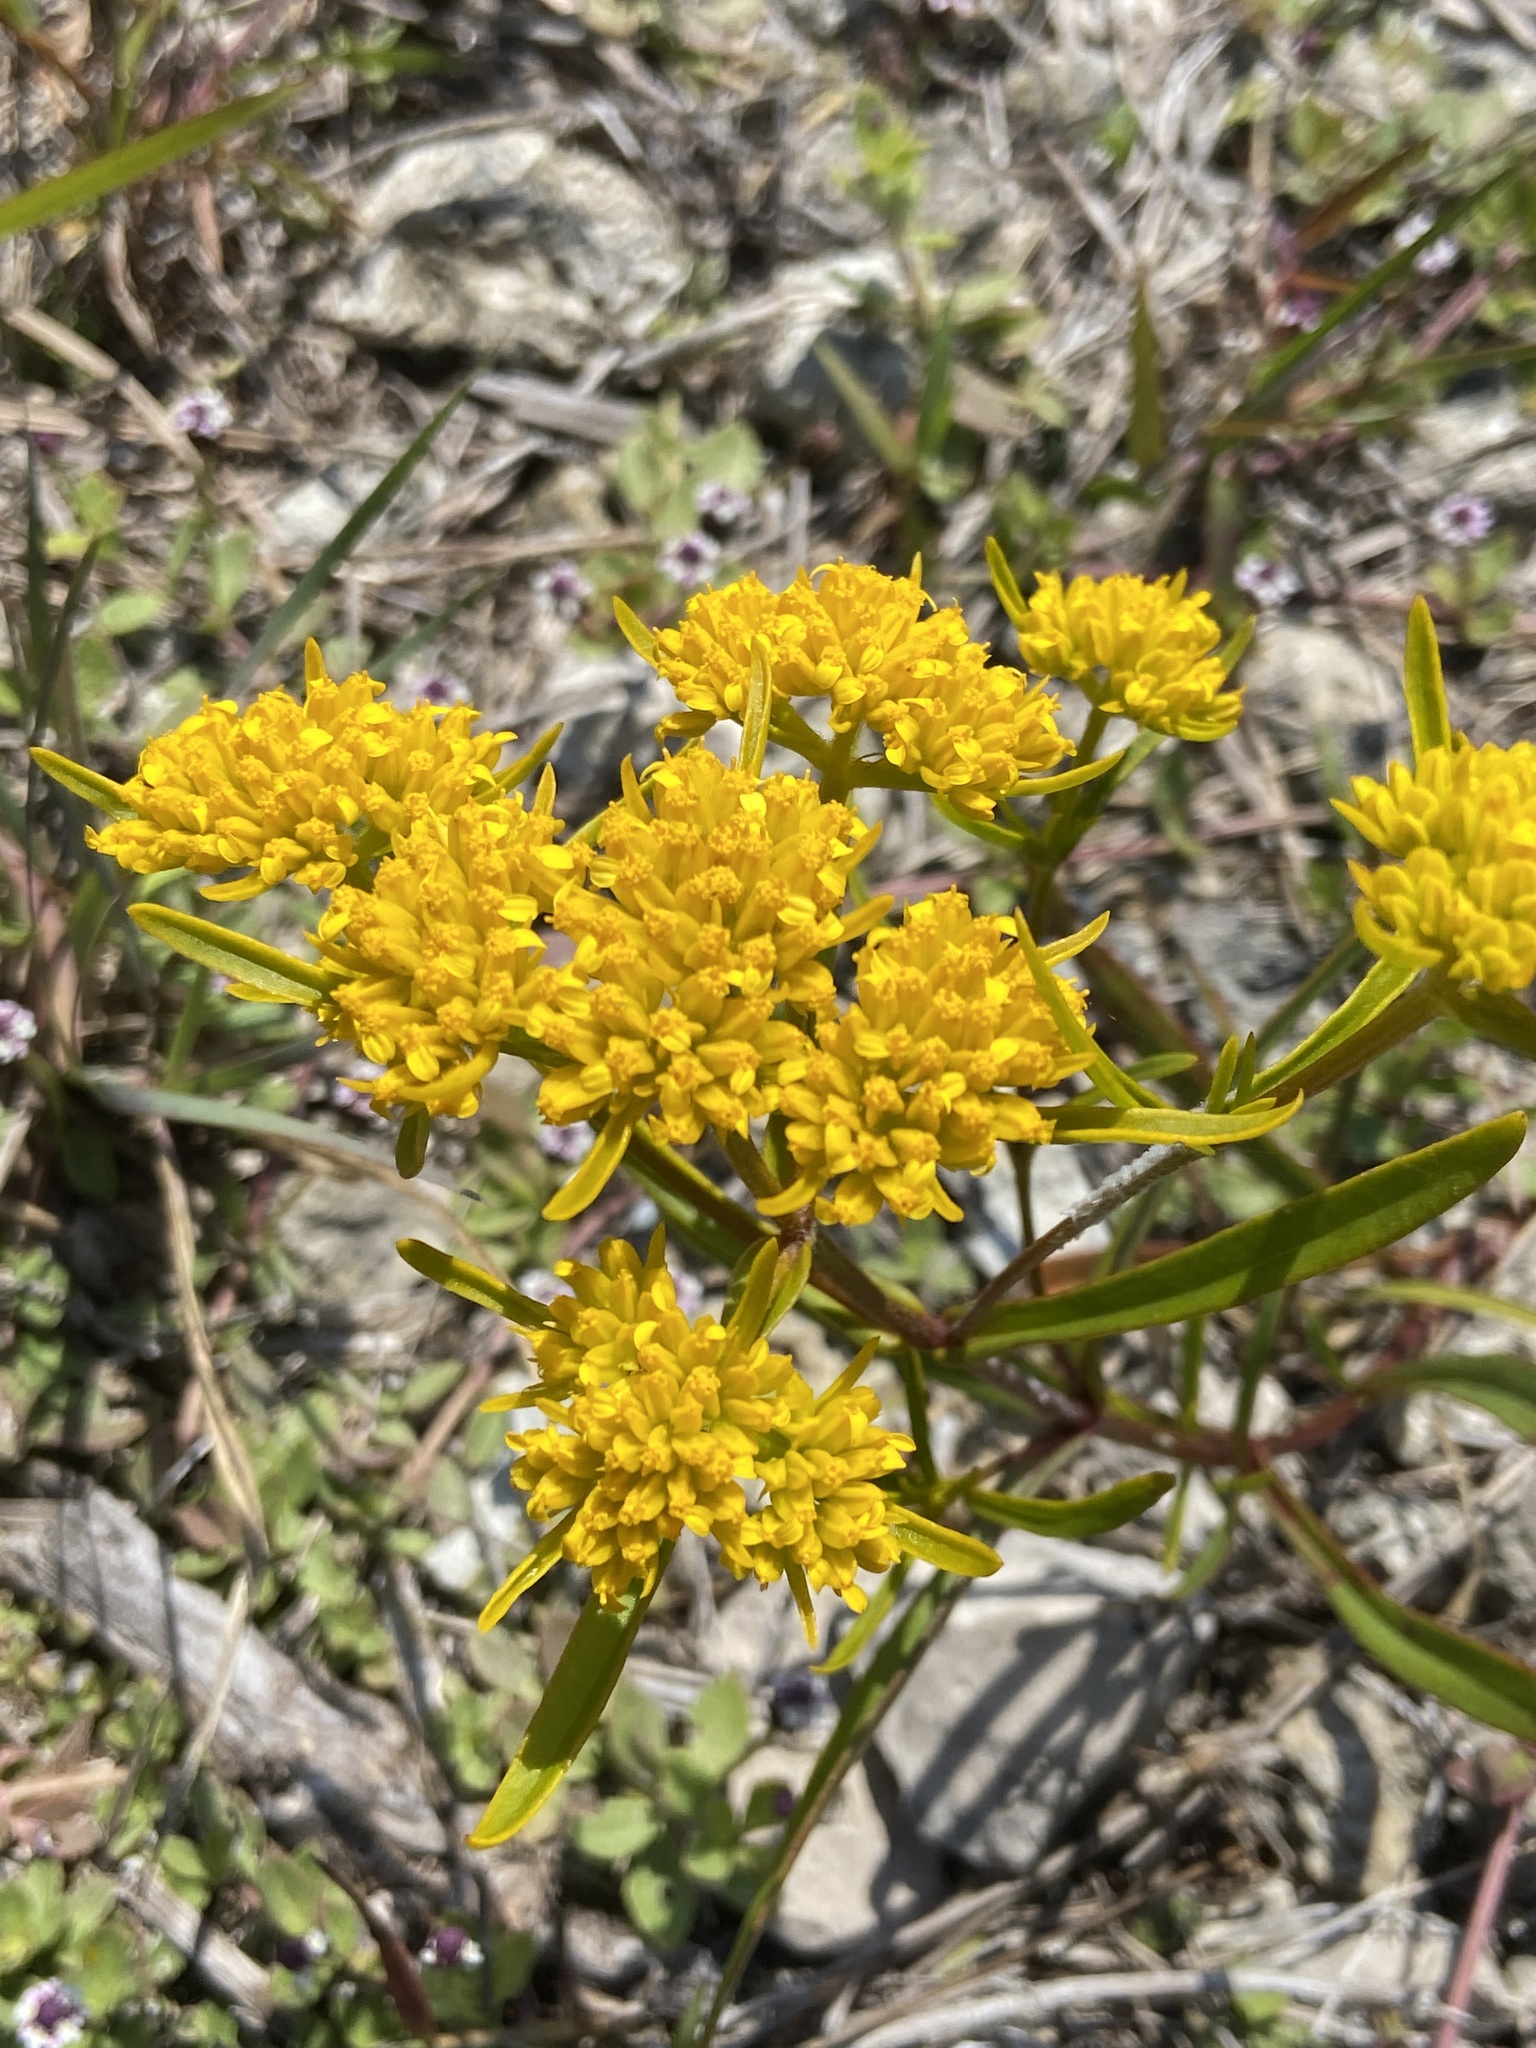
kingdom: Plantae
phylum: Tracheophyta
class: Magnoliopsida
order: Asterales
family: Asteraceae
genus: Flaveria
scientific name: Flaveria linearis
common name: Yellowtop
